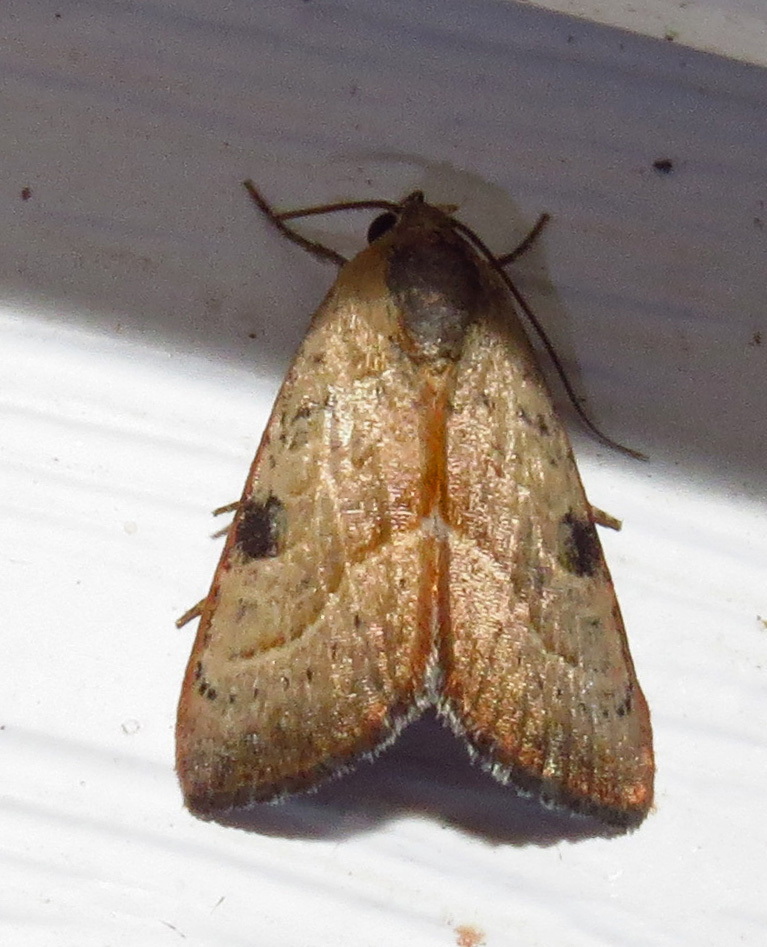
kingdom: Animalia
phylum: Arthropoda
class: Insecta
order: Lepidoptera
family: Noctuidae
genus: Galgula
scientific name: Galgula partita
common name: Wedgeling
